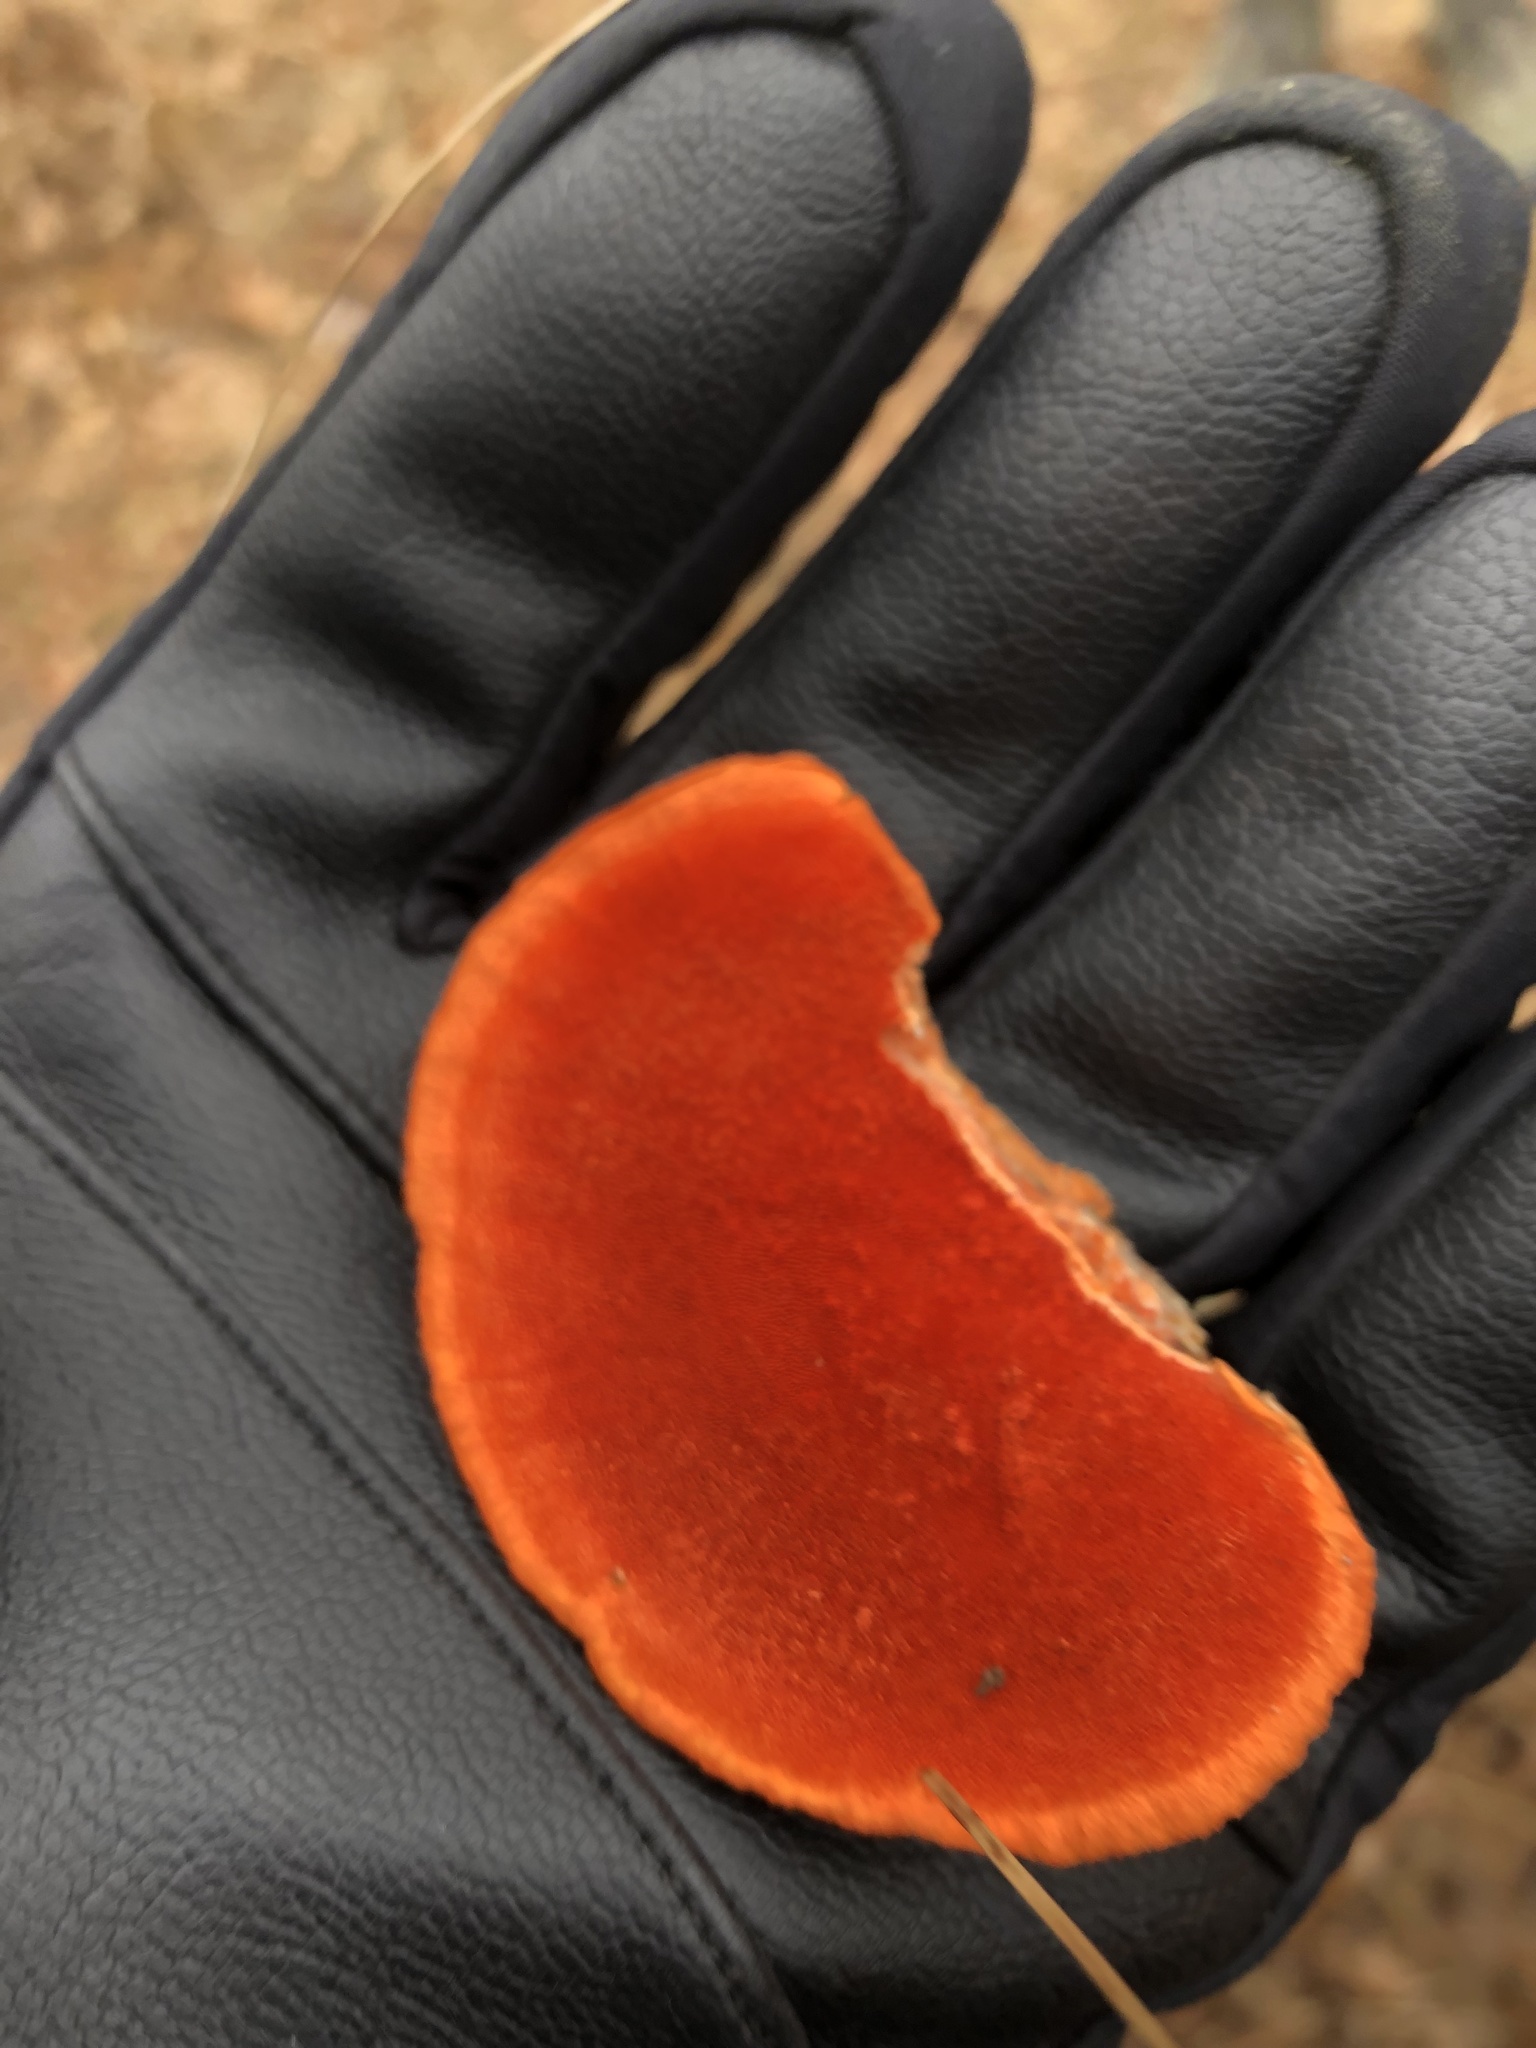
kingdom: Fungi
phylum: Basidiomycota
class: Agaricomycetes
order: Polyporales
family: Polyporaceae
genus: Trametes
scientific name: Trametes cinnabarina
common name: Northern cinnabar polypore
